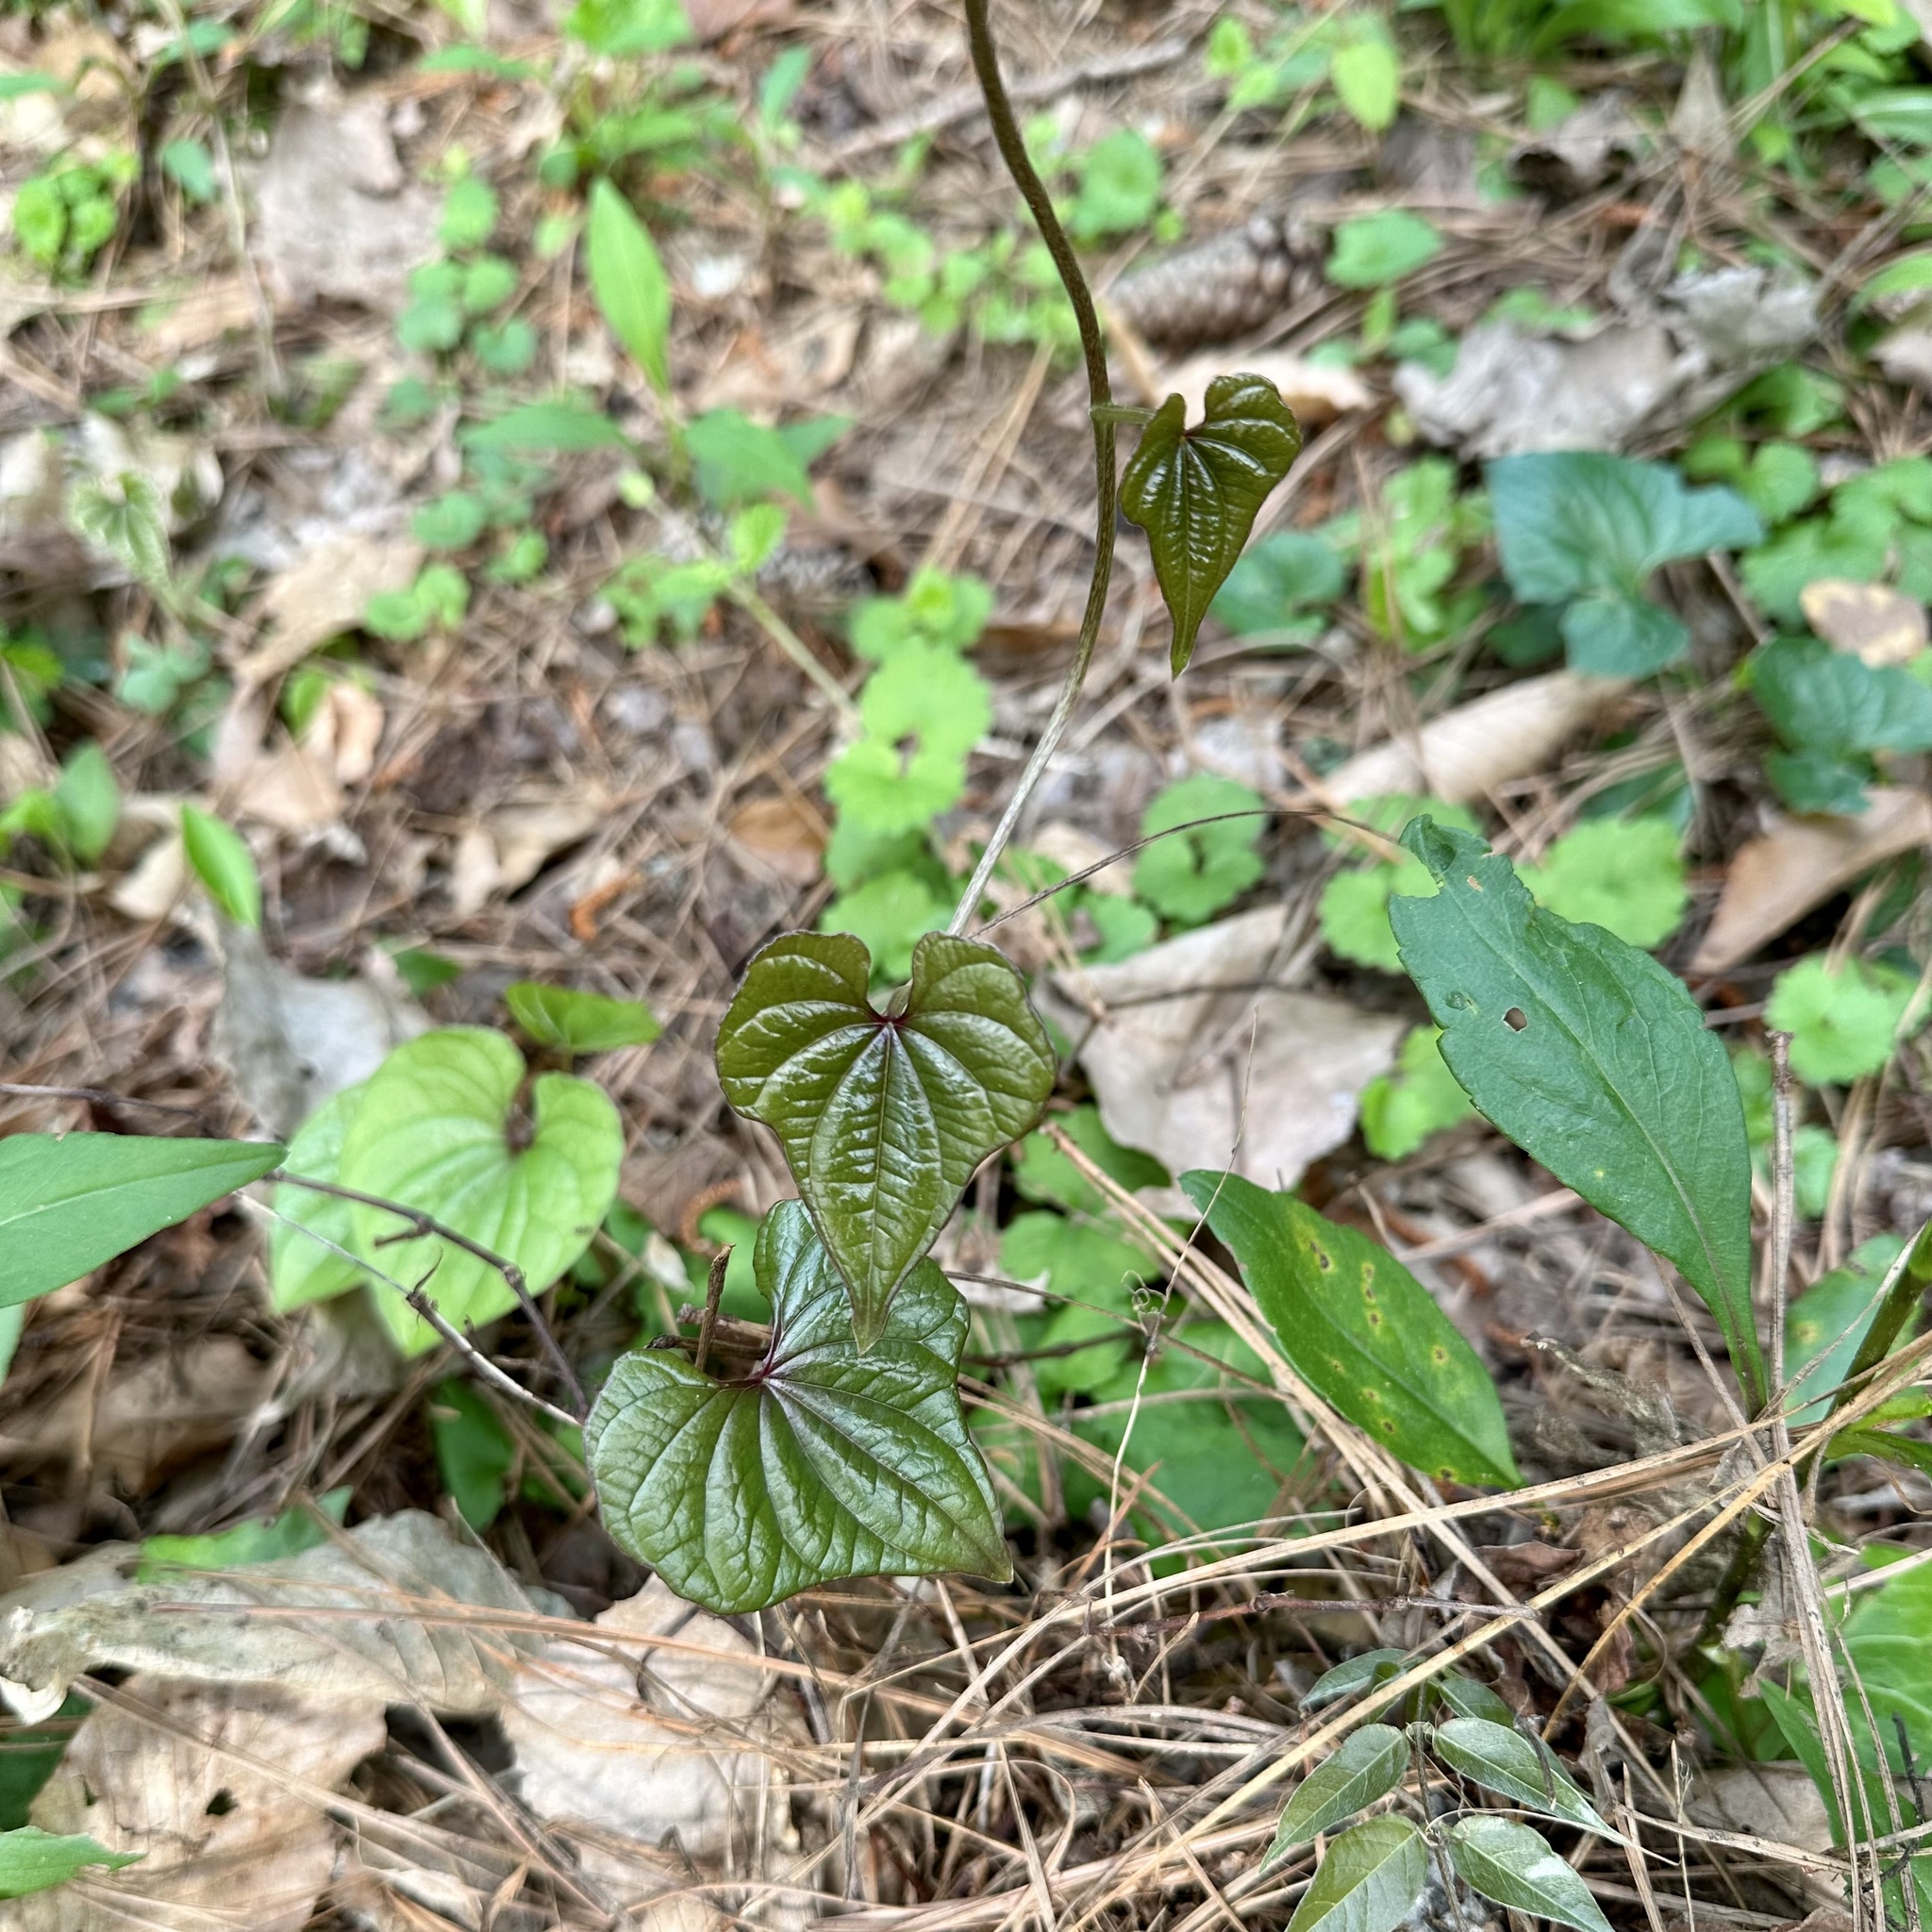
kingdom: Plantae
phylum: Tracheophyta
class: Liliopsida
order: Dioscoreales
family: Dioscoreaceae
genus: Dioscorea
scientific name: Dioscorea polystachya
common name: Chinese yam
